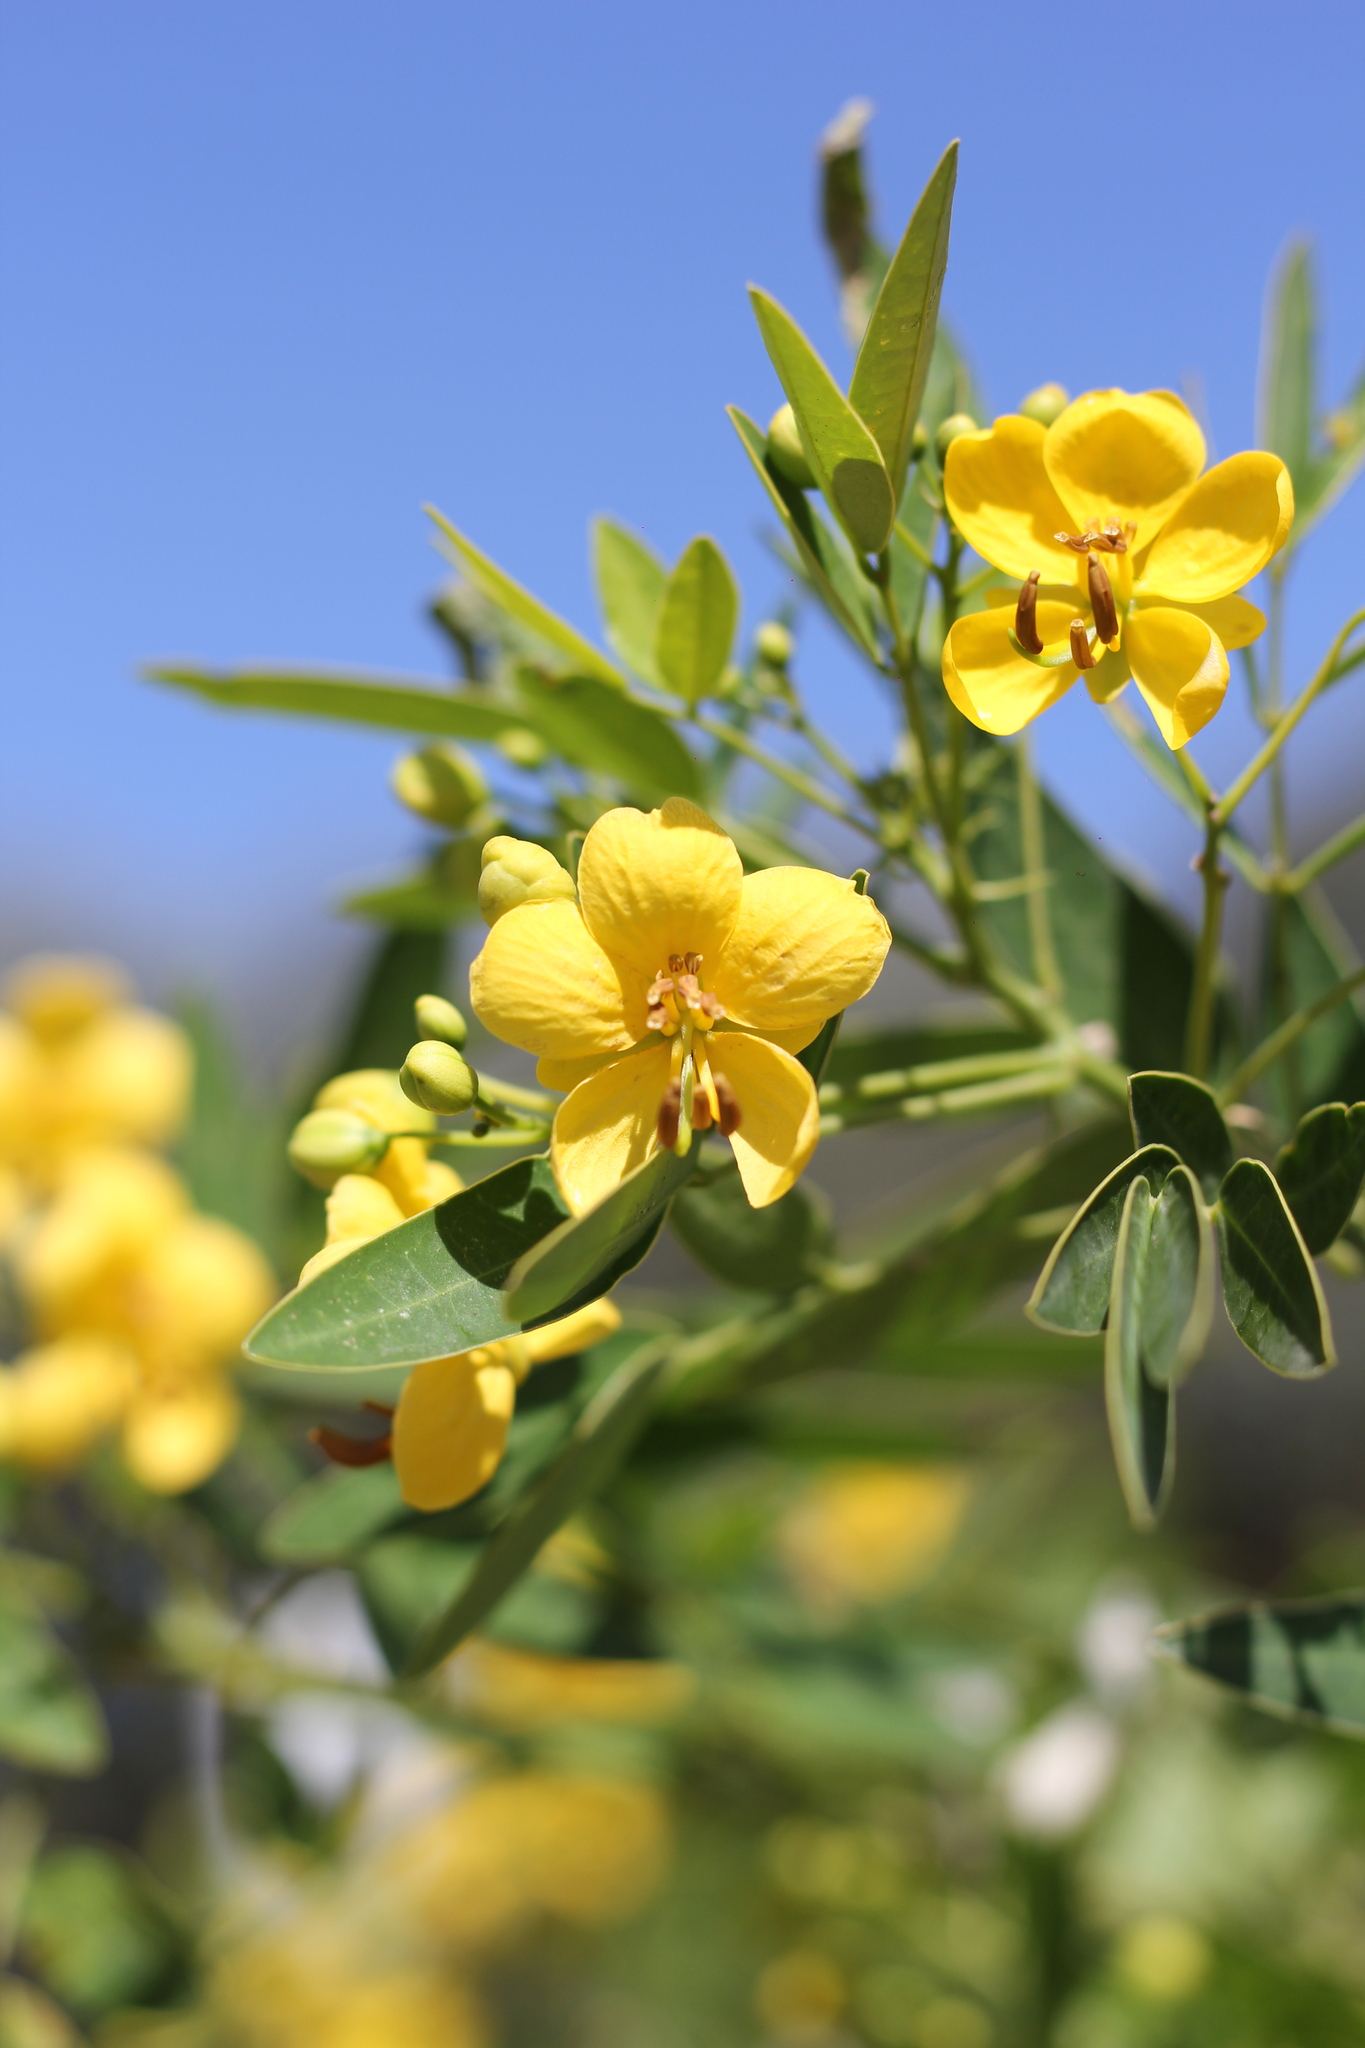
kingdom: Plantae
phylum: Tracheophyta
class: Magnoliopsida
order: Fabales
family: Fabaceae
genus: Senna
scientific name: Senna corymbosa
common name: Argentine senna
